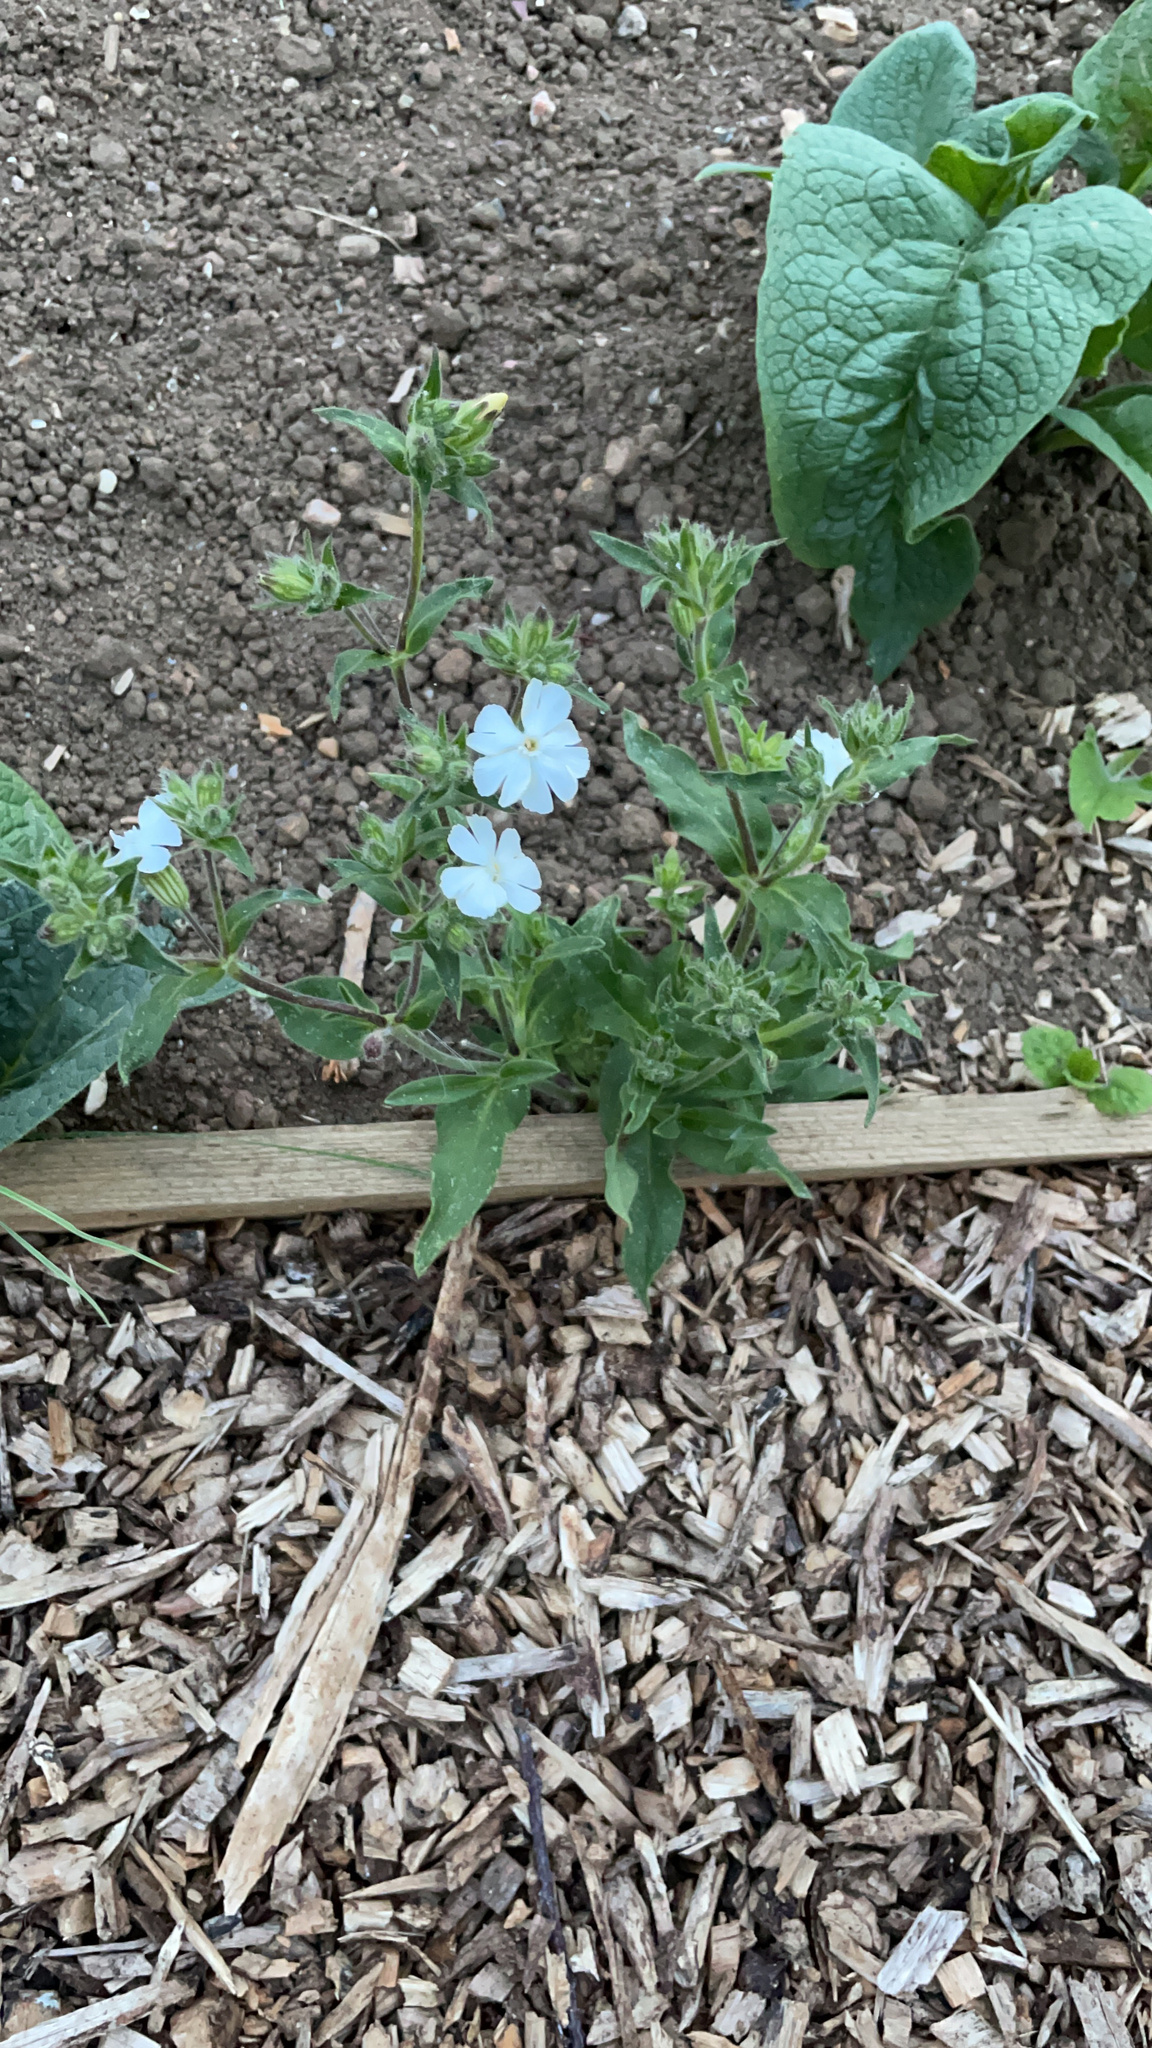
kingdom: Plantae
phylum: Tracheophyta
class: Magnoliopsida
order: Caryophyllales
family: Caryophyllaceae
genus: Silene
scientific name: Silene latifolia
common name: White campion
